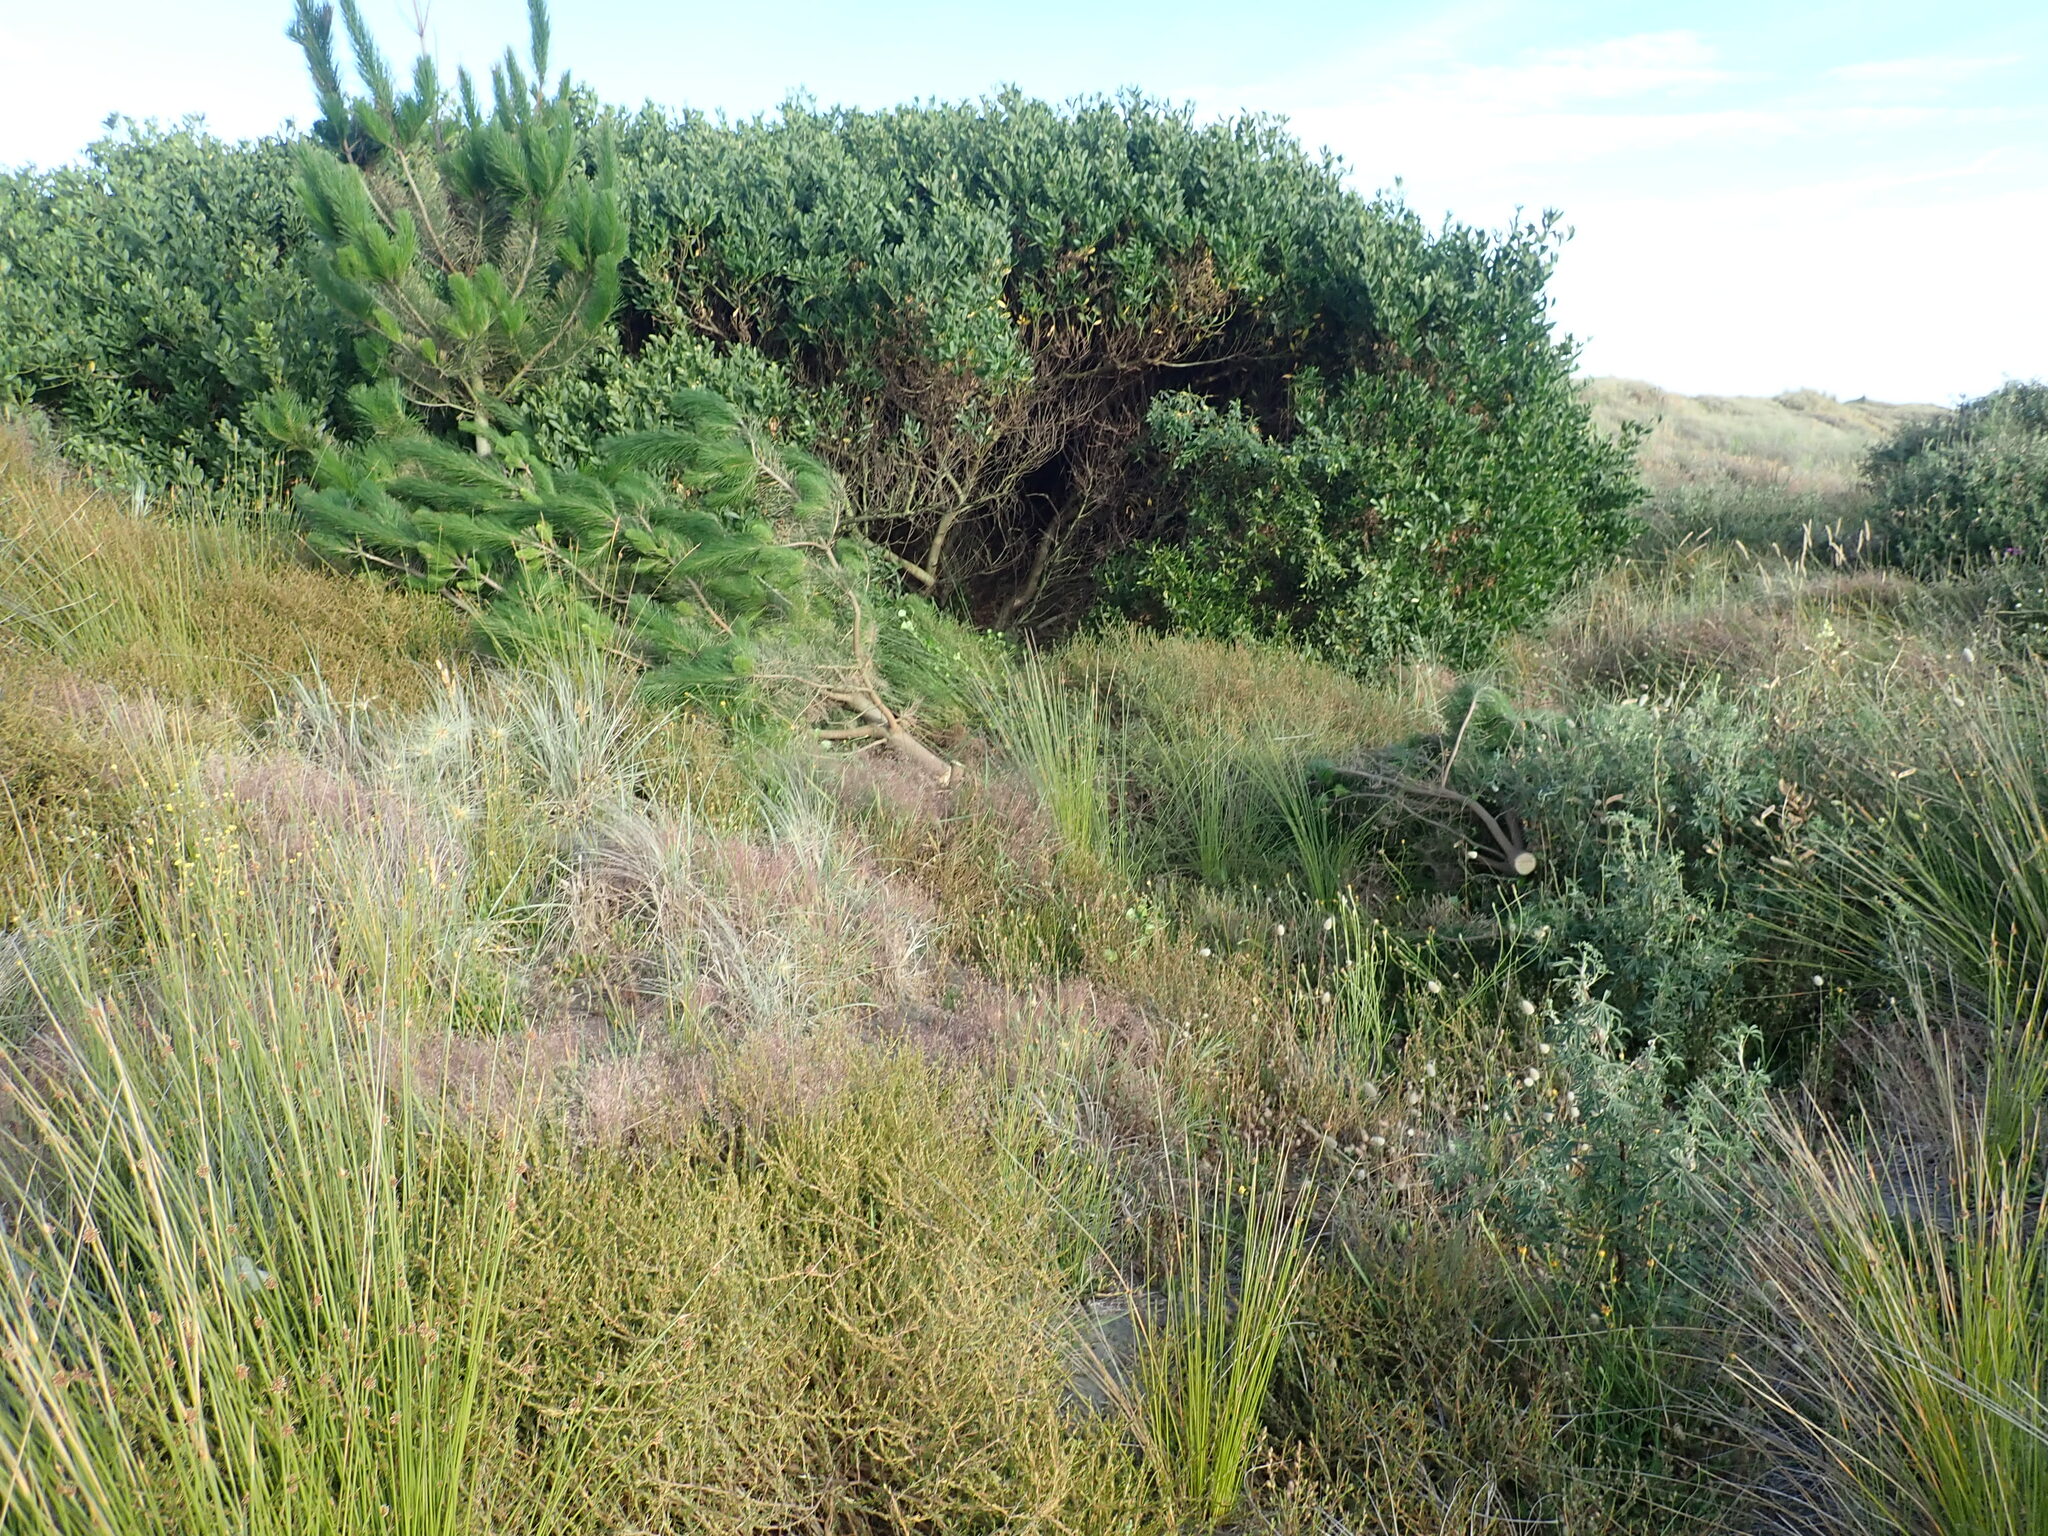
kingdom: Plantae
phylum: Tracheophyta
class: Pinopsida
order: Pinales
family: Pinaceae
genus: Pinus
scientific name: Pinus radiata
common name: Monterey pine
